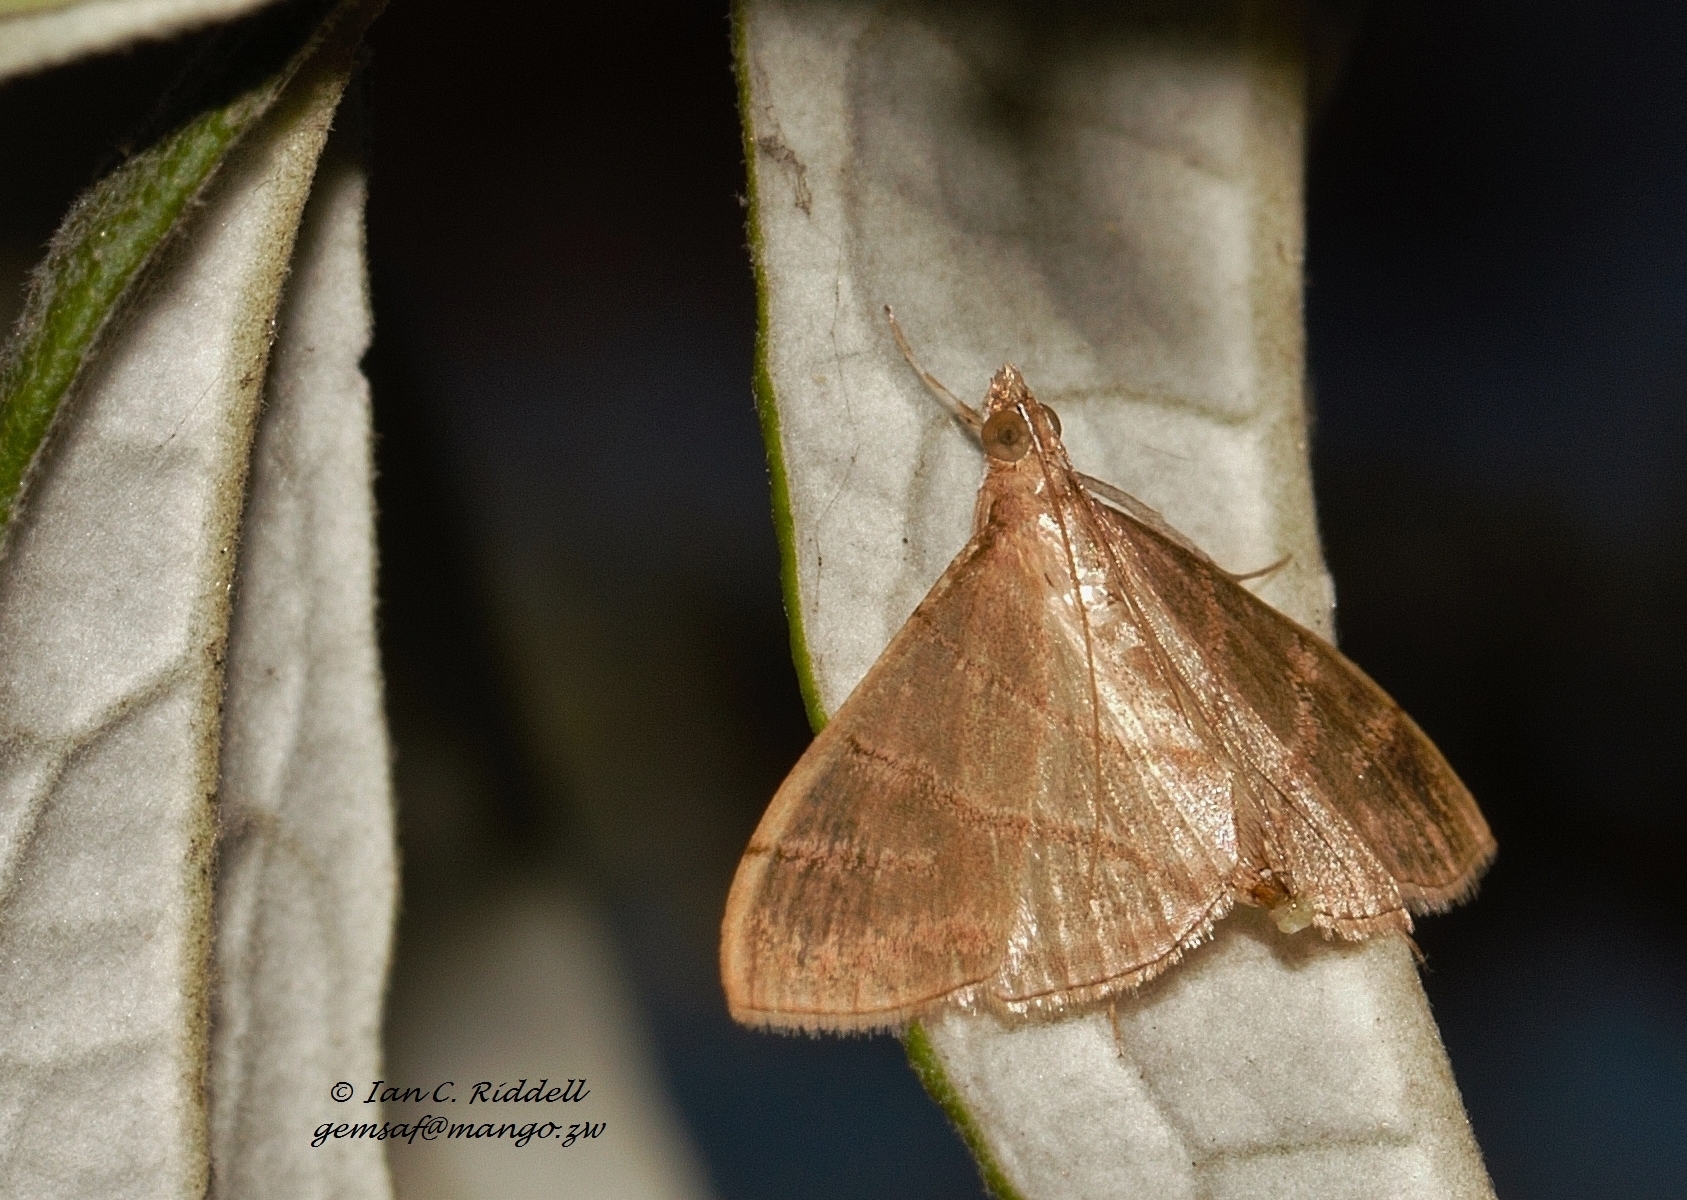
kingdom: Animalia
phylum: Arthropoda
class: Insecta
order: Lepidoptera
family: Crambidae
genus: Pagyda
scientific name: Pagyda salvalis
